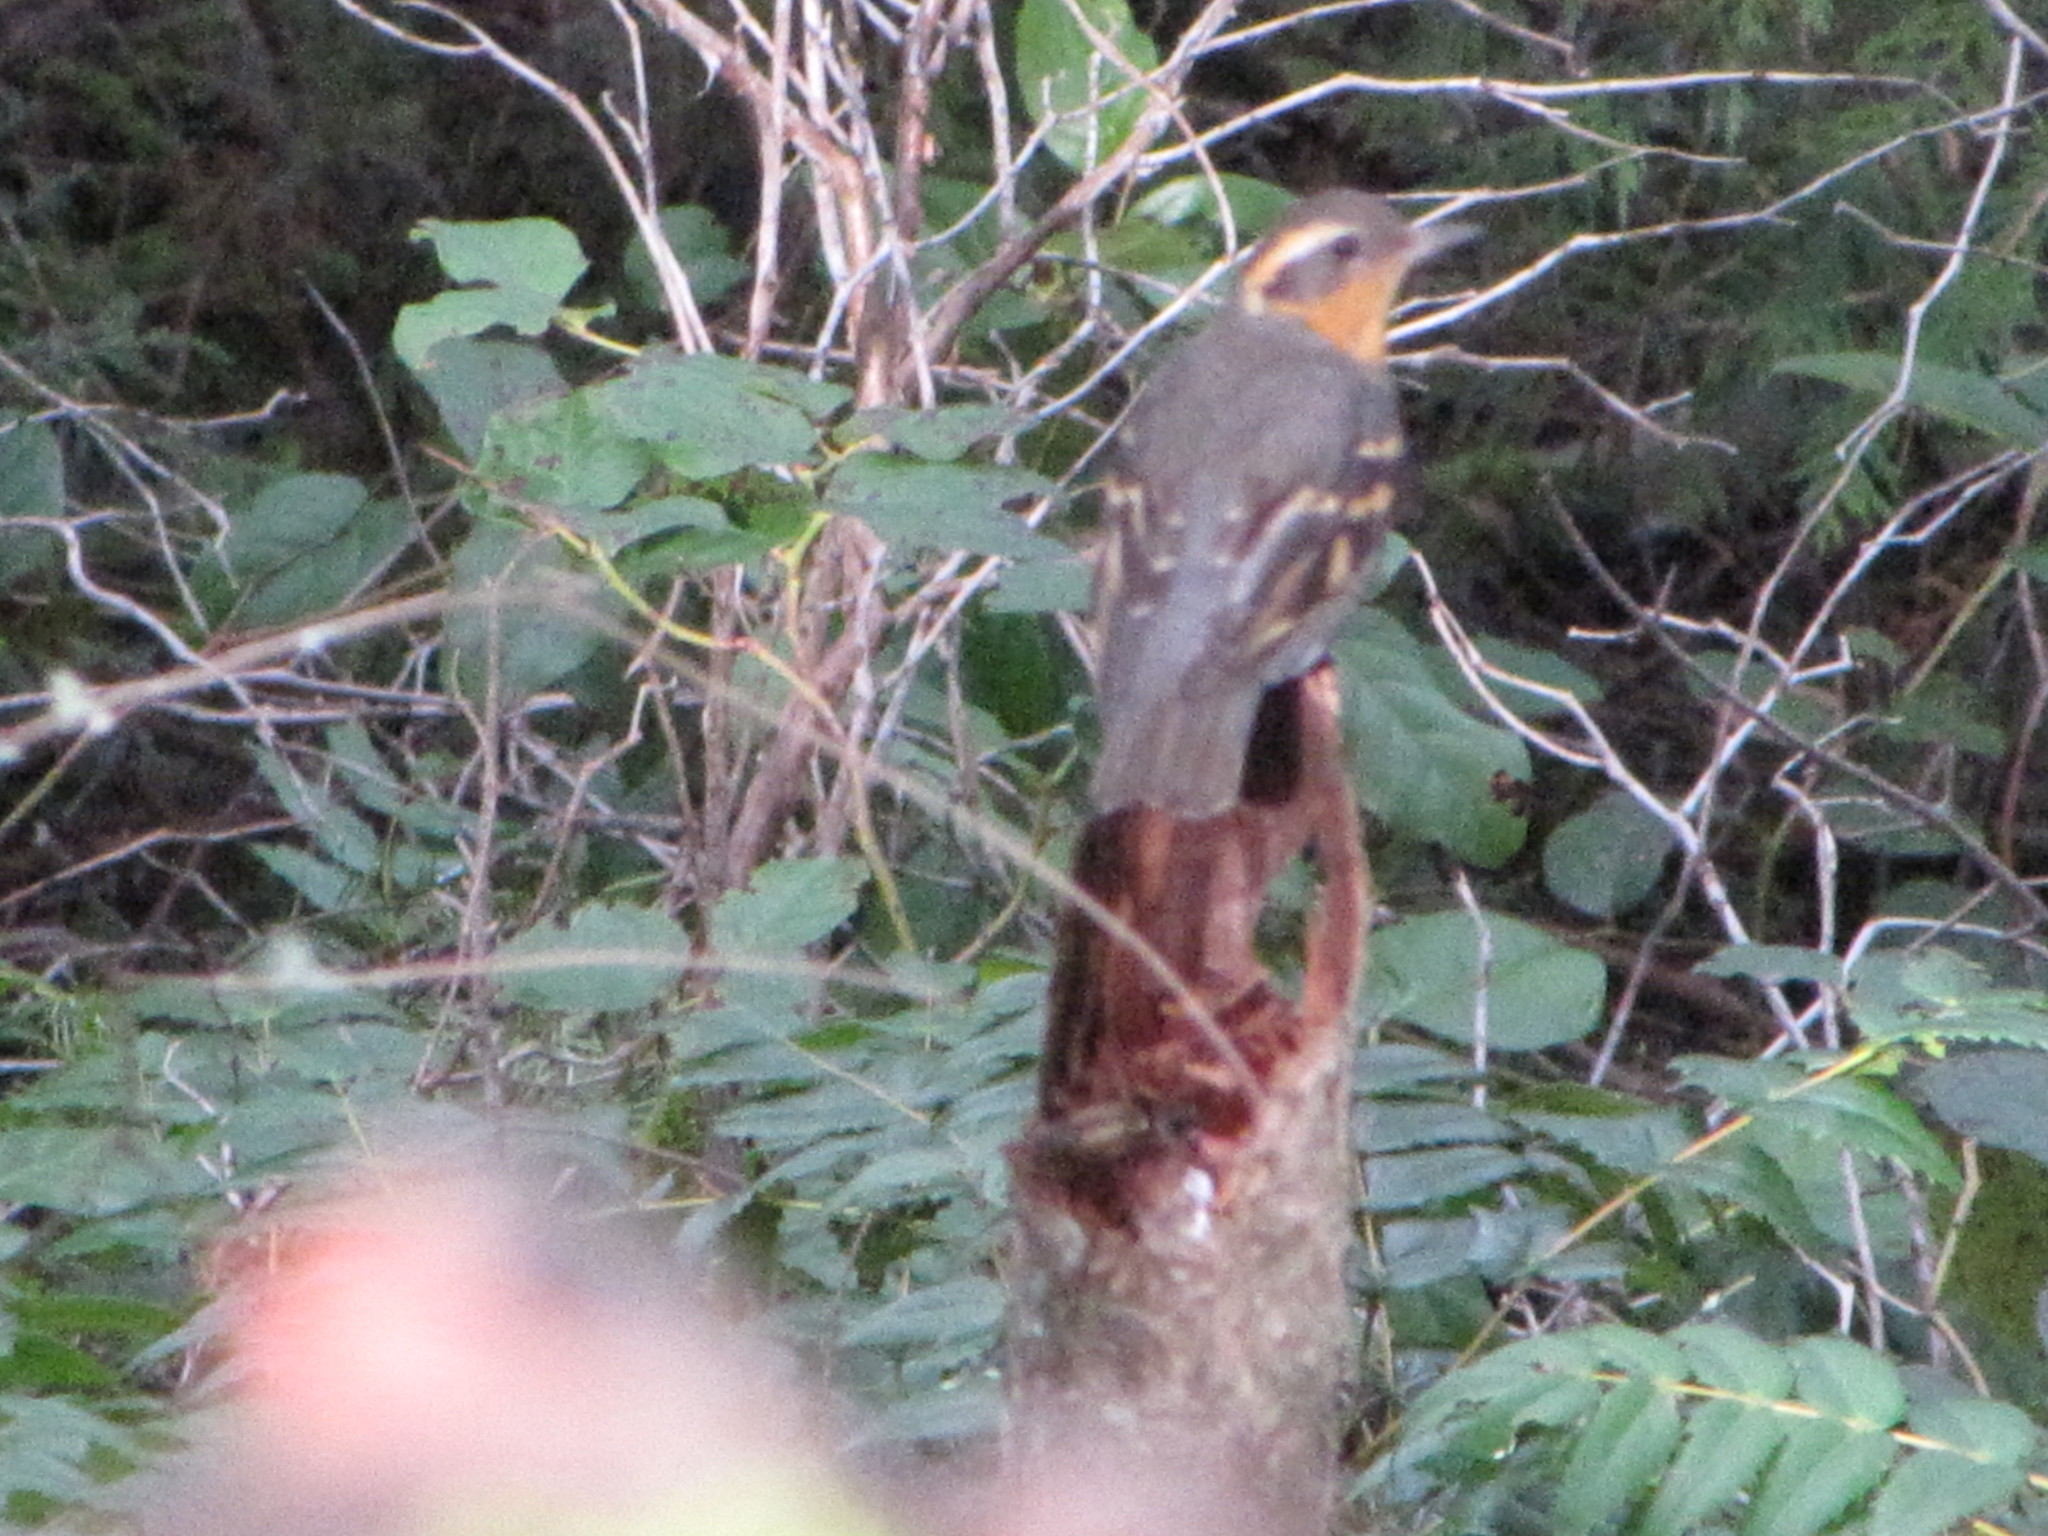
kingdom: Animalia
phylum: Chordata
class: Aves
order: Passeriformes
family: Turdidae
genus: Ixoreus
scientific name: Ixoreus naevius
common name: Varied thrush
